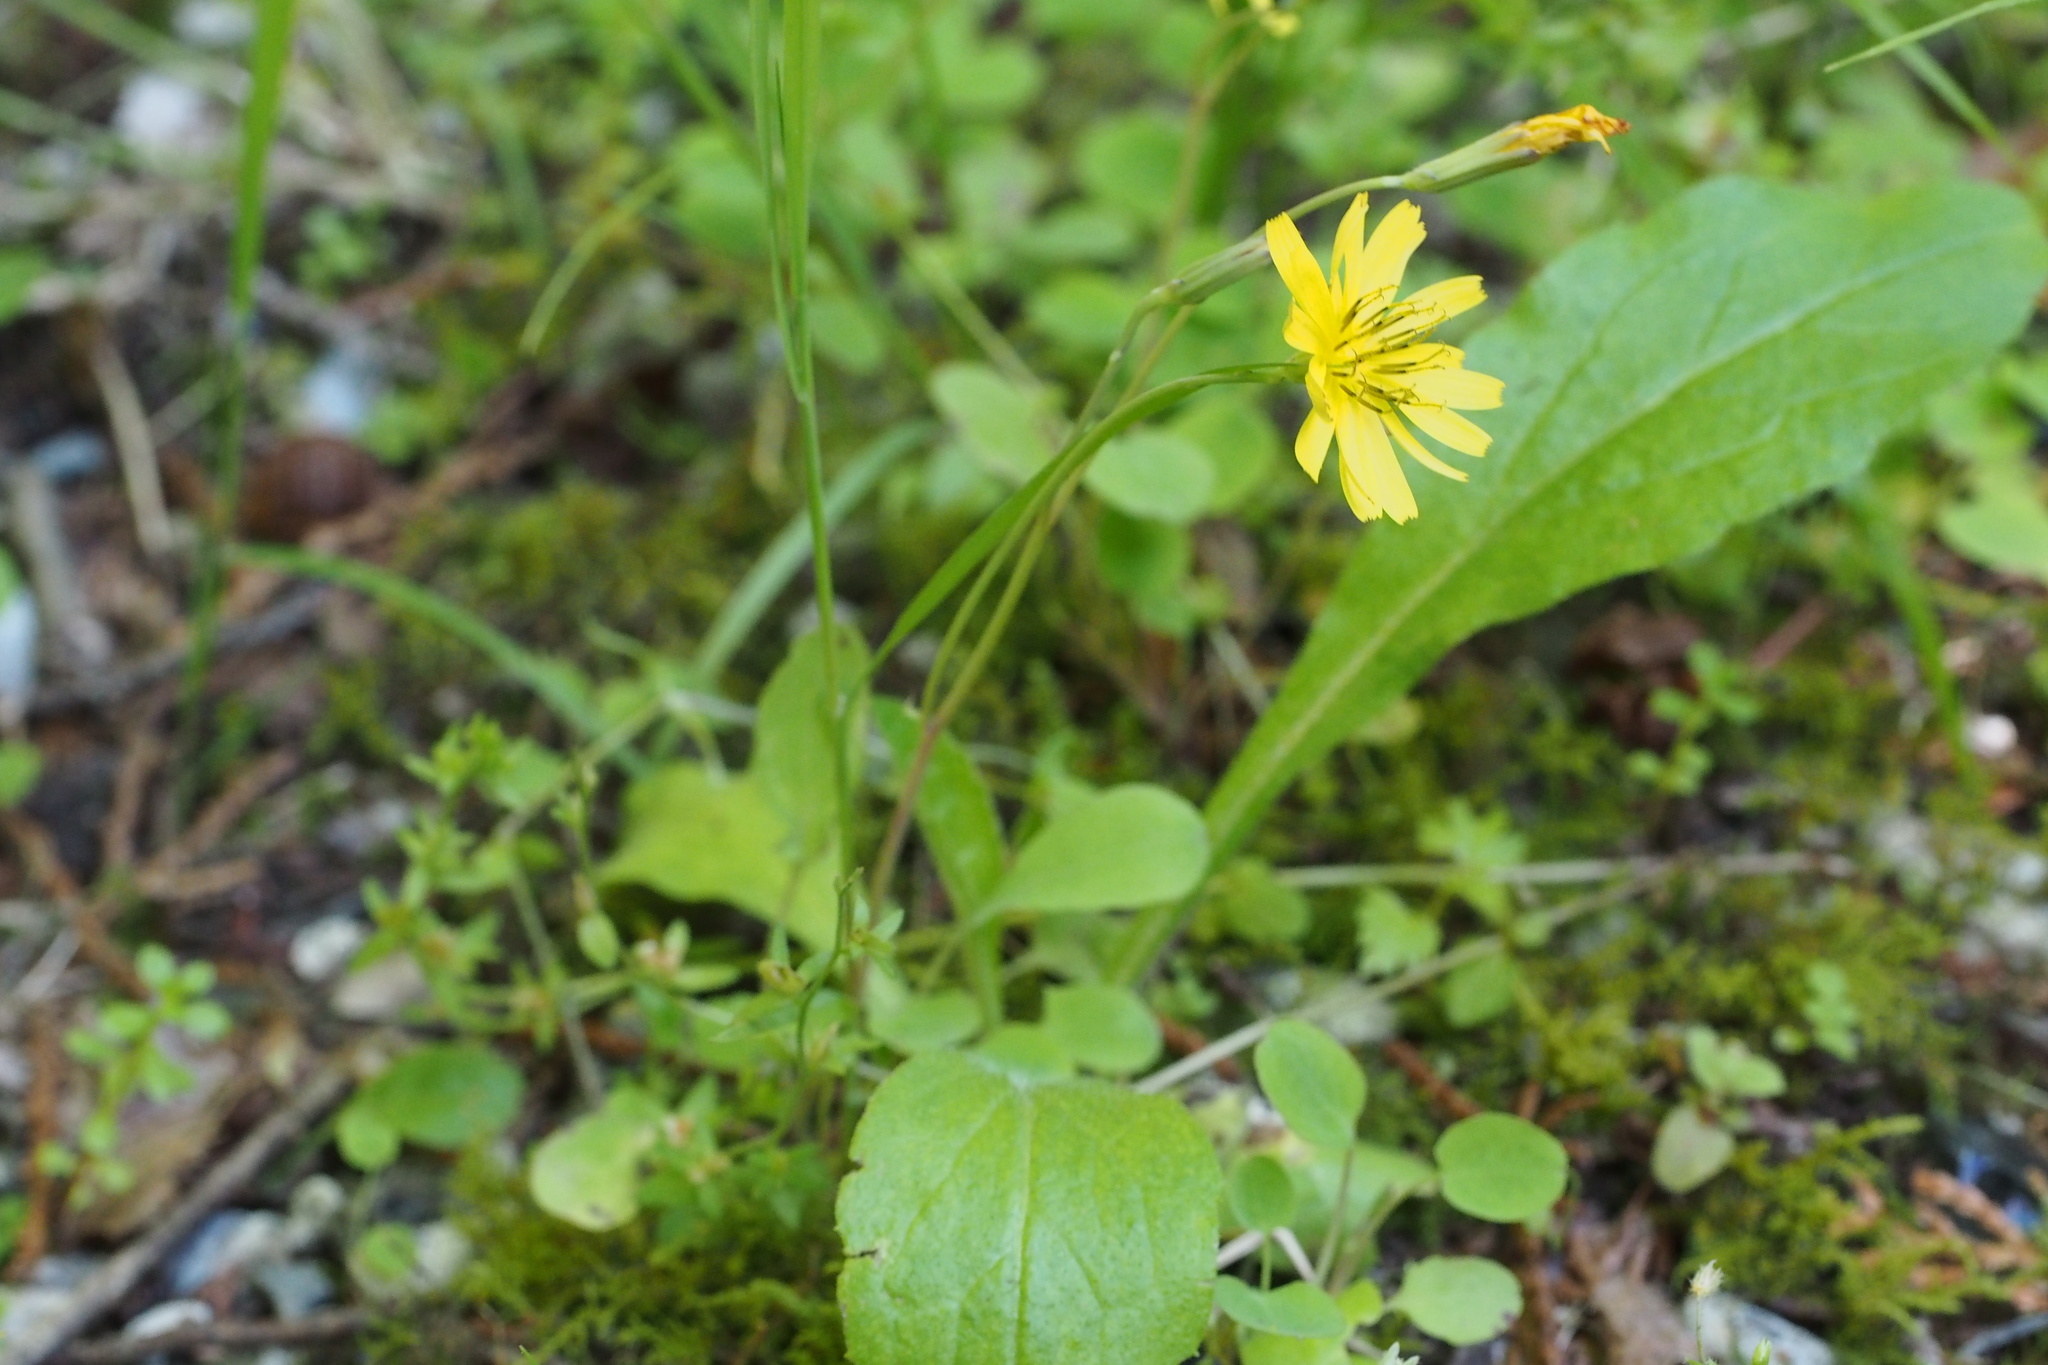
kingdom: Plantae
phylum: Tracheophyta
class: Magnoliopsida
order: Asterales
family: Asteraceae
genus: Ixeris
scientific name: Ixeris stolonifera
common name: Creeping lettuce
